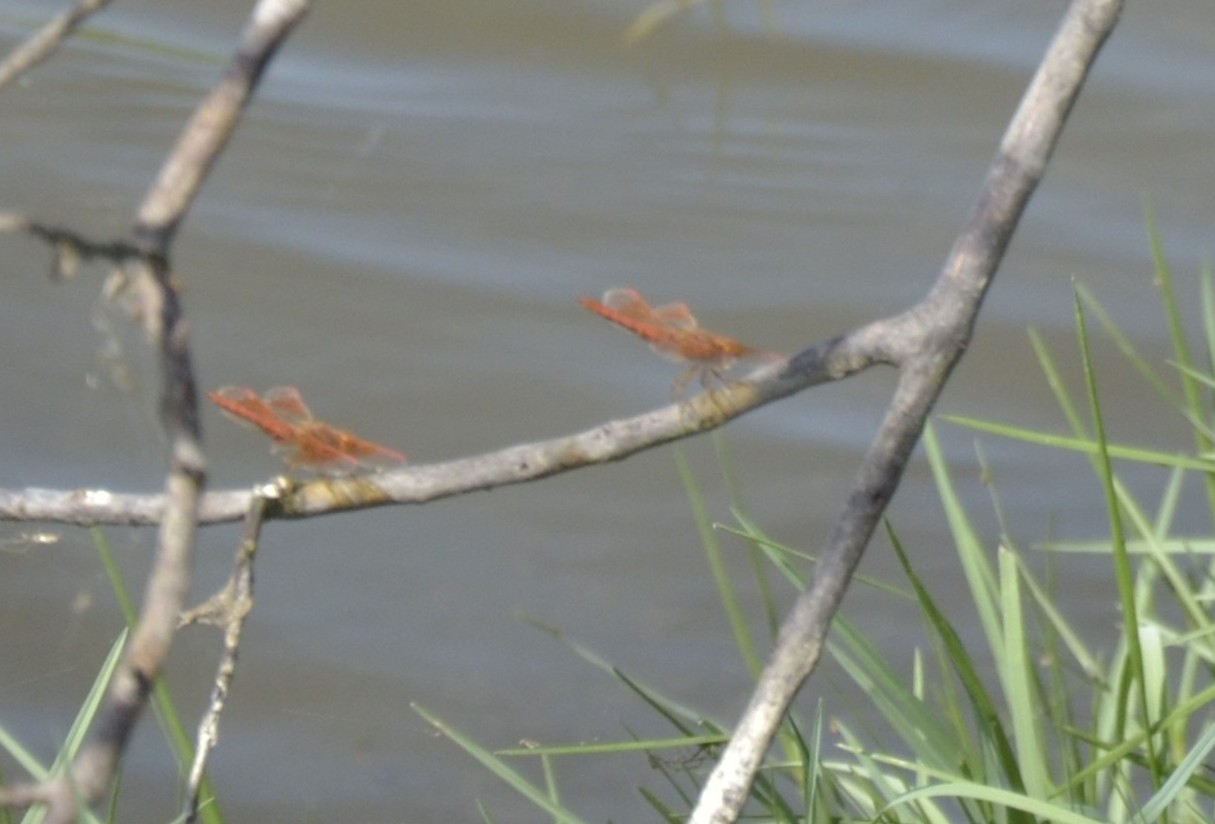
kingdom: Animalia
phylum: Arthropoda
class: Insecta
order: Odonata
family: Libellulidae
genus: Brachythemis
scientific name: Brachythemis contaminata
